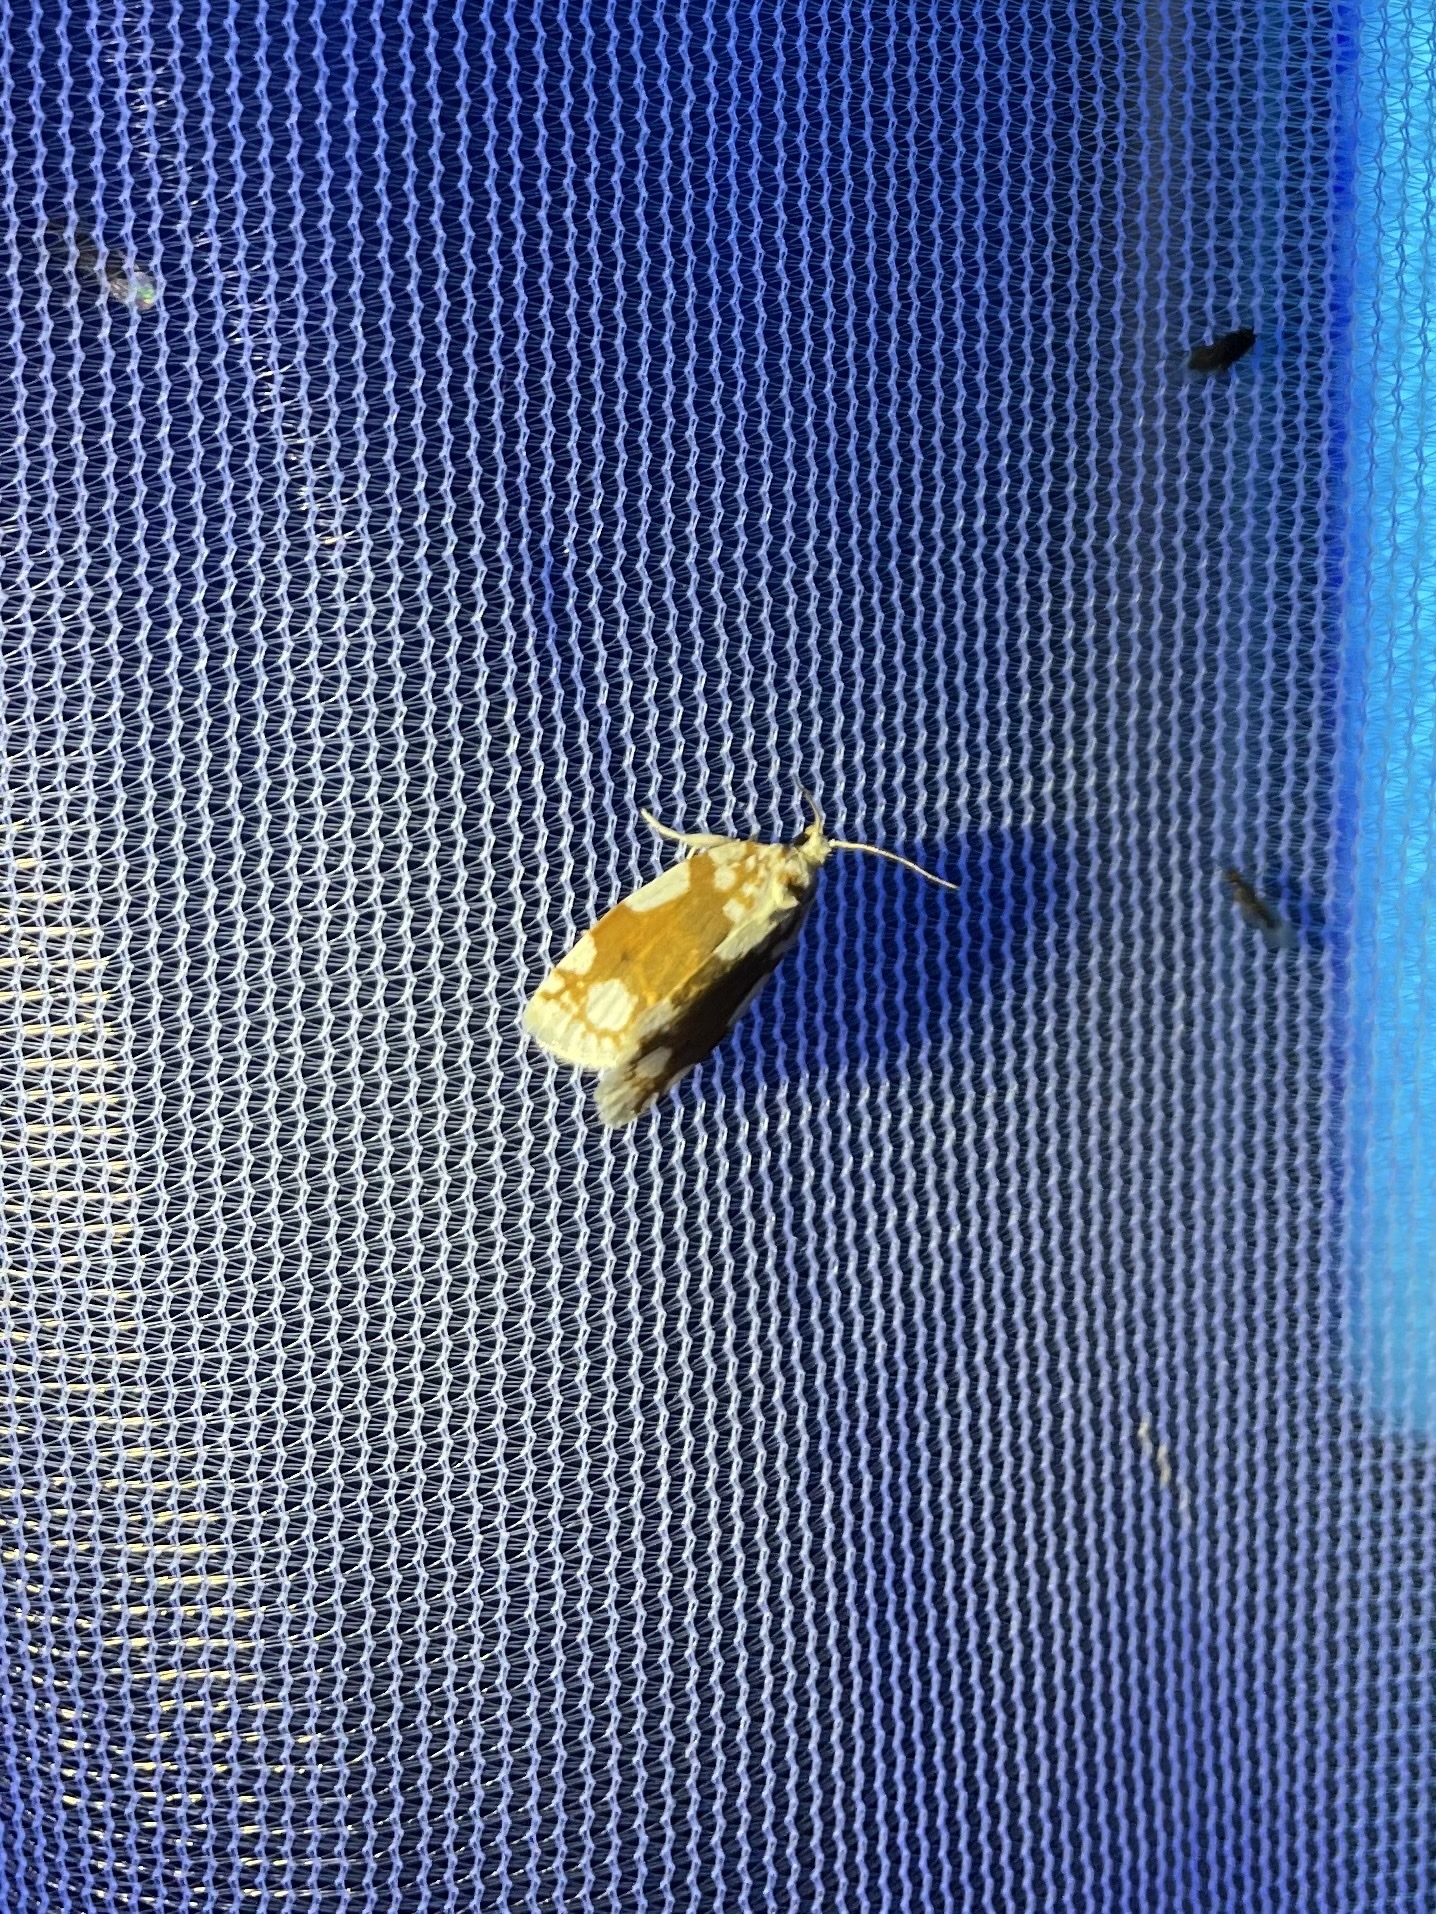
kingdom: Animalia
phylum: Arthropoda
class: Insecta
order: Lepidoptera
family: Tortricidae
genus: Argyrotaenia
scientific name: Argyrotaenia alisellana
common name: White-spotted leafroller moth
